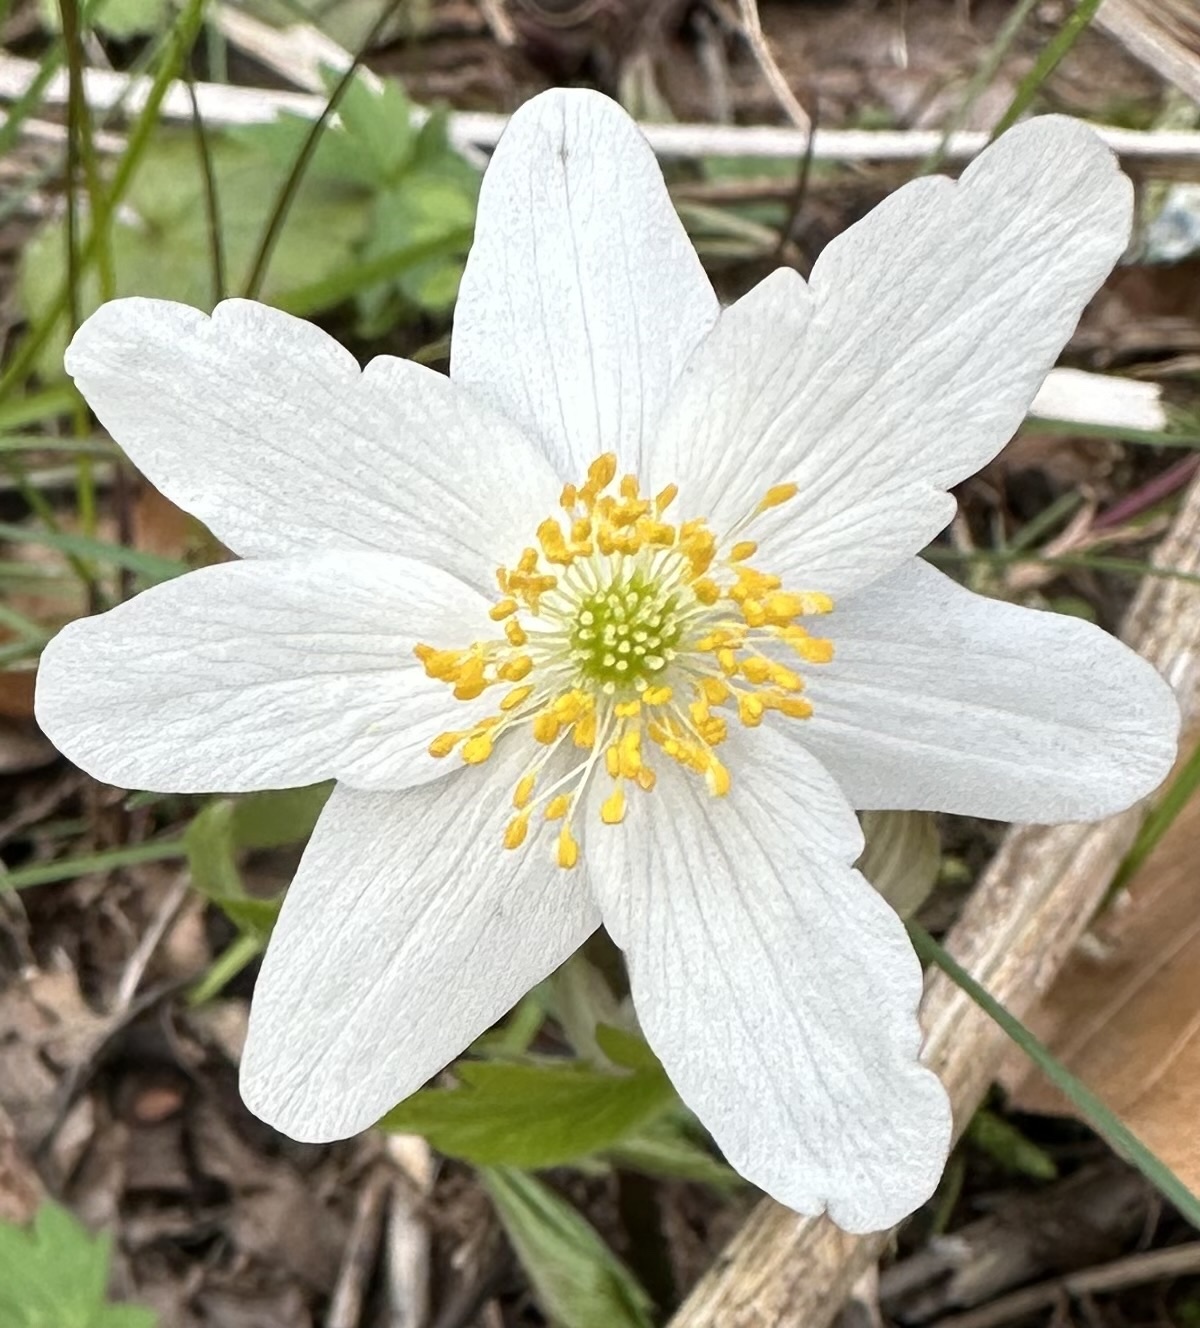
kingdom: Plantae
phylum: Tracheophyta
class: Magnoliopsida
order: Ranunculales
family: Ranunculaceae
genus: Anemone
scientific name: Anemone nemorosa
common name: Wood anemone
